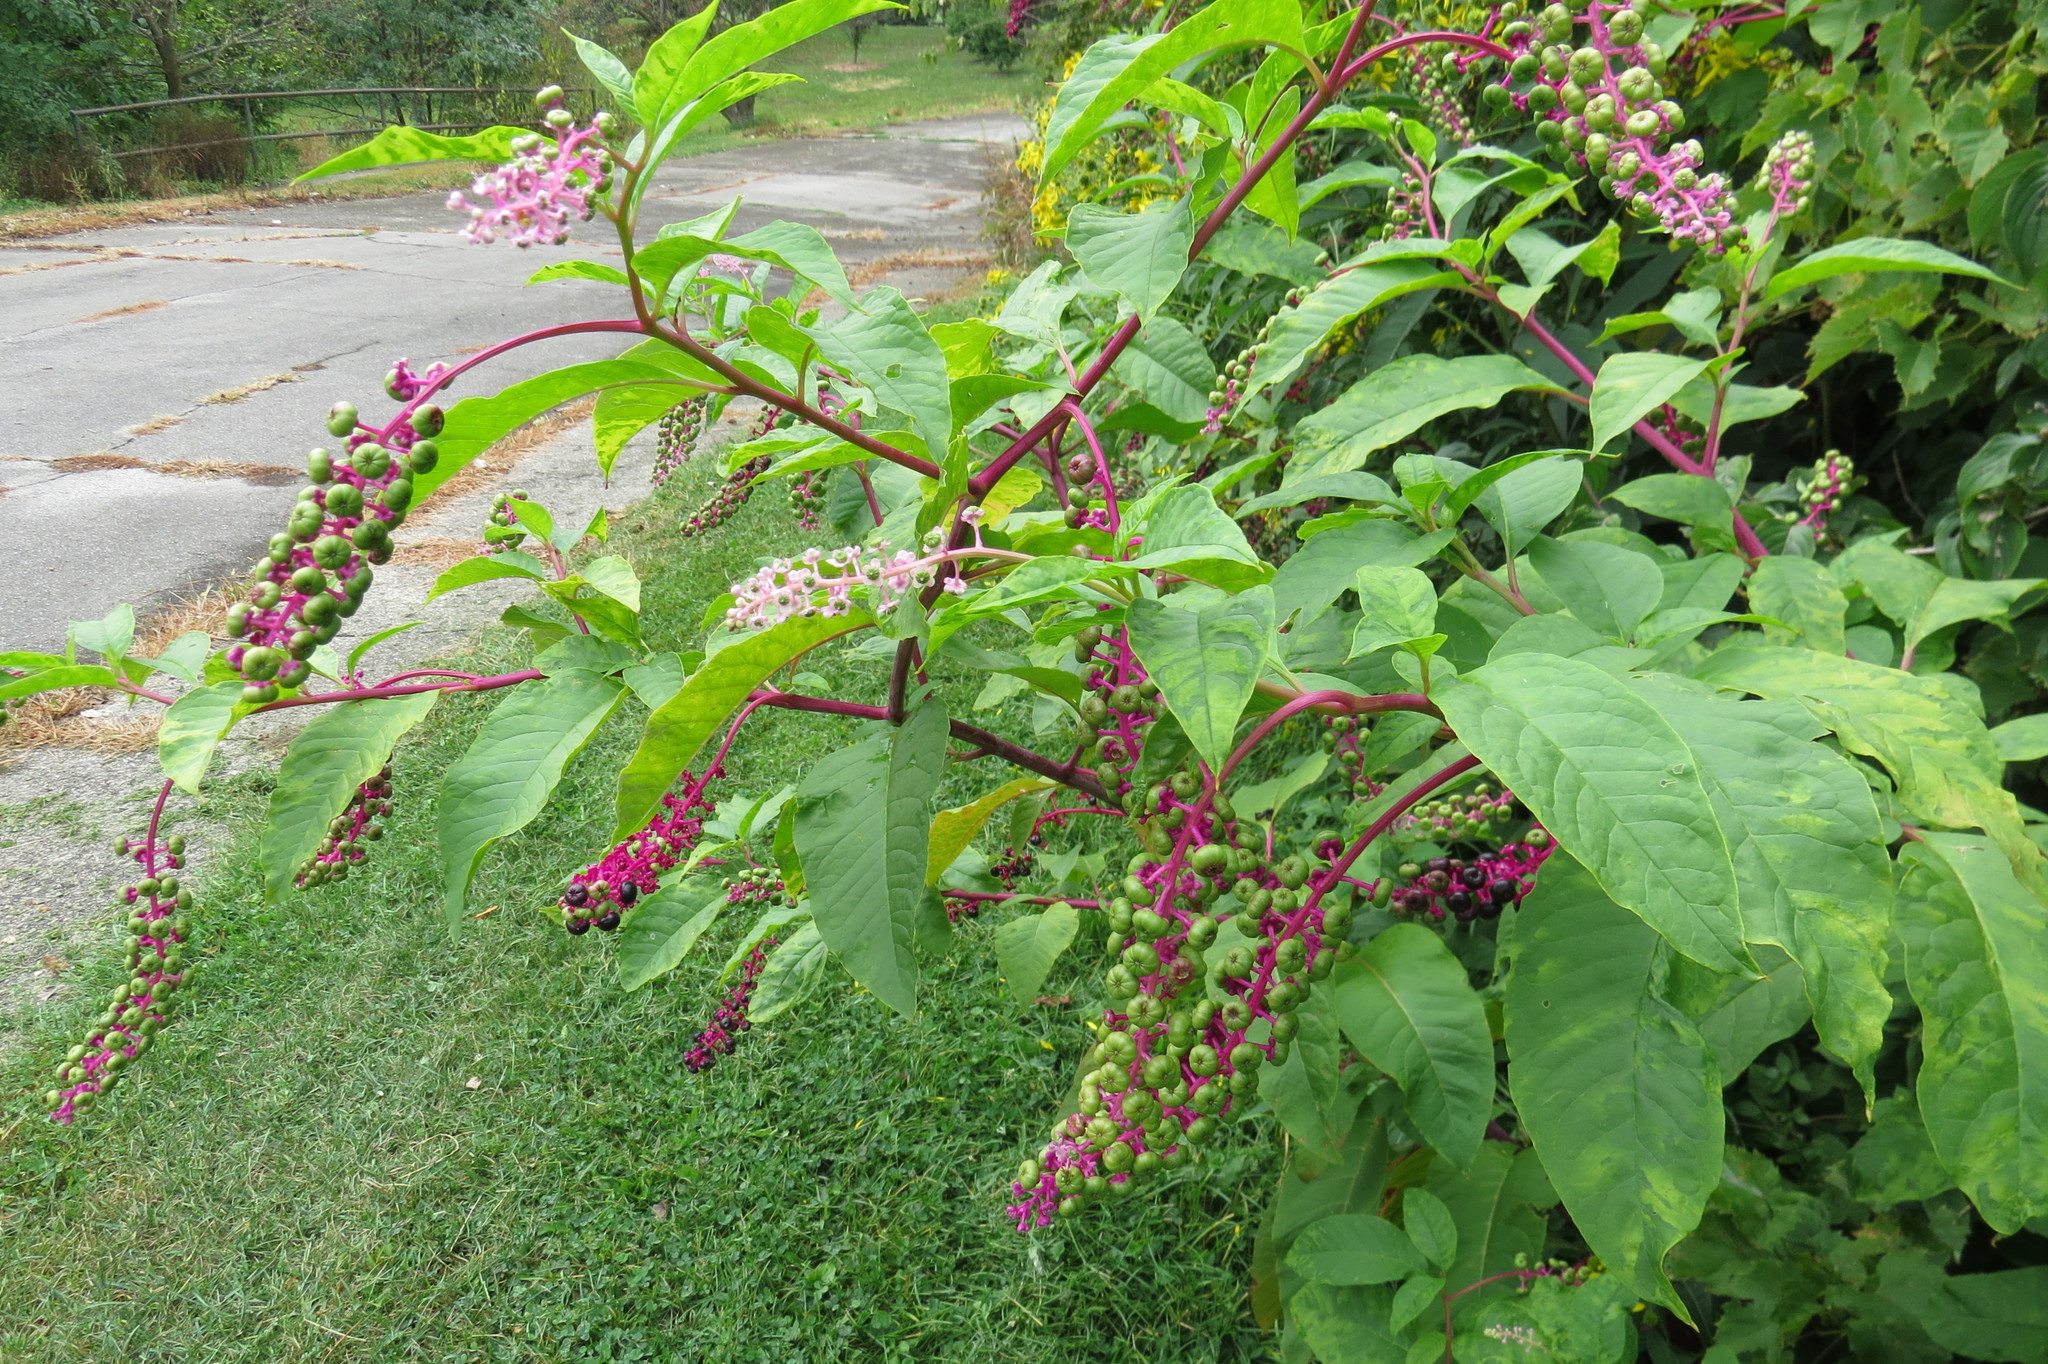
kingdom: Plantae
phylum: Tracheophyta
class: Magnoliopsida
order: Caryophyllales
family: Phytolaccaceae
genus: Phytolacca
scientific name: Phytolacca americana
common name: American pokeweed
